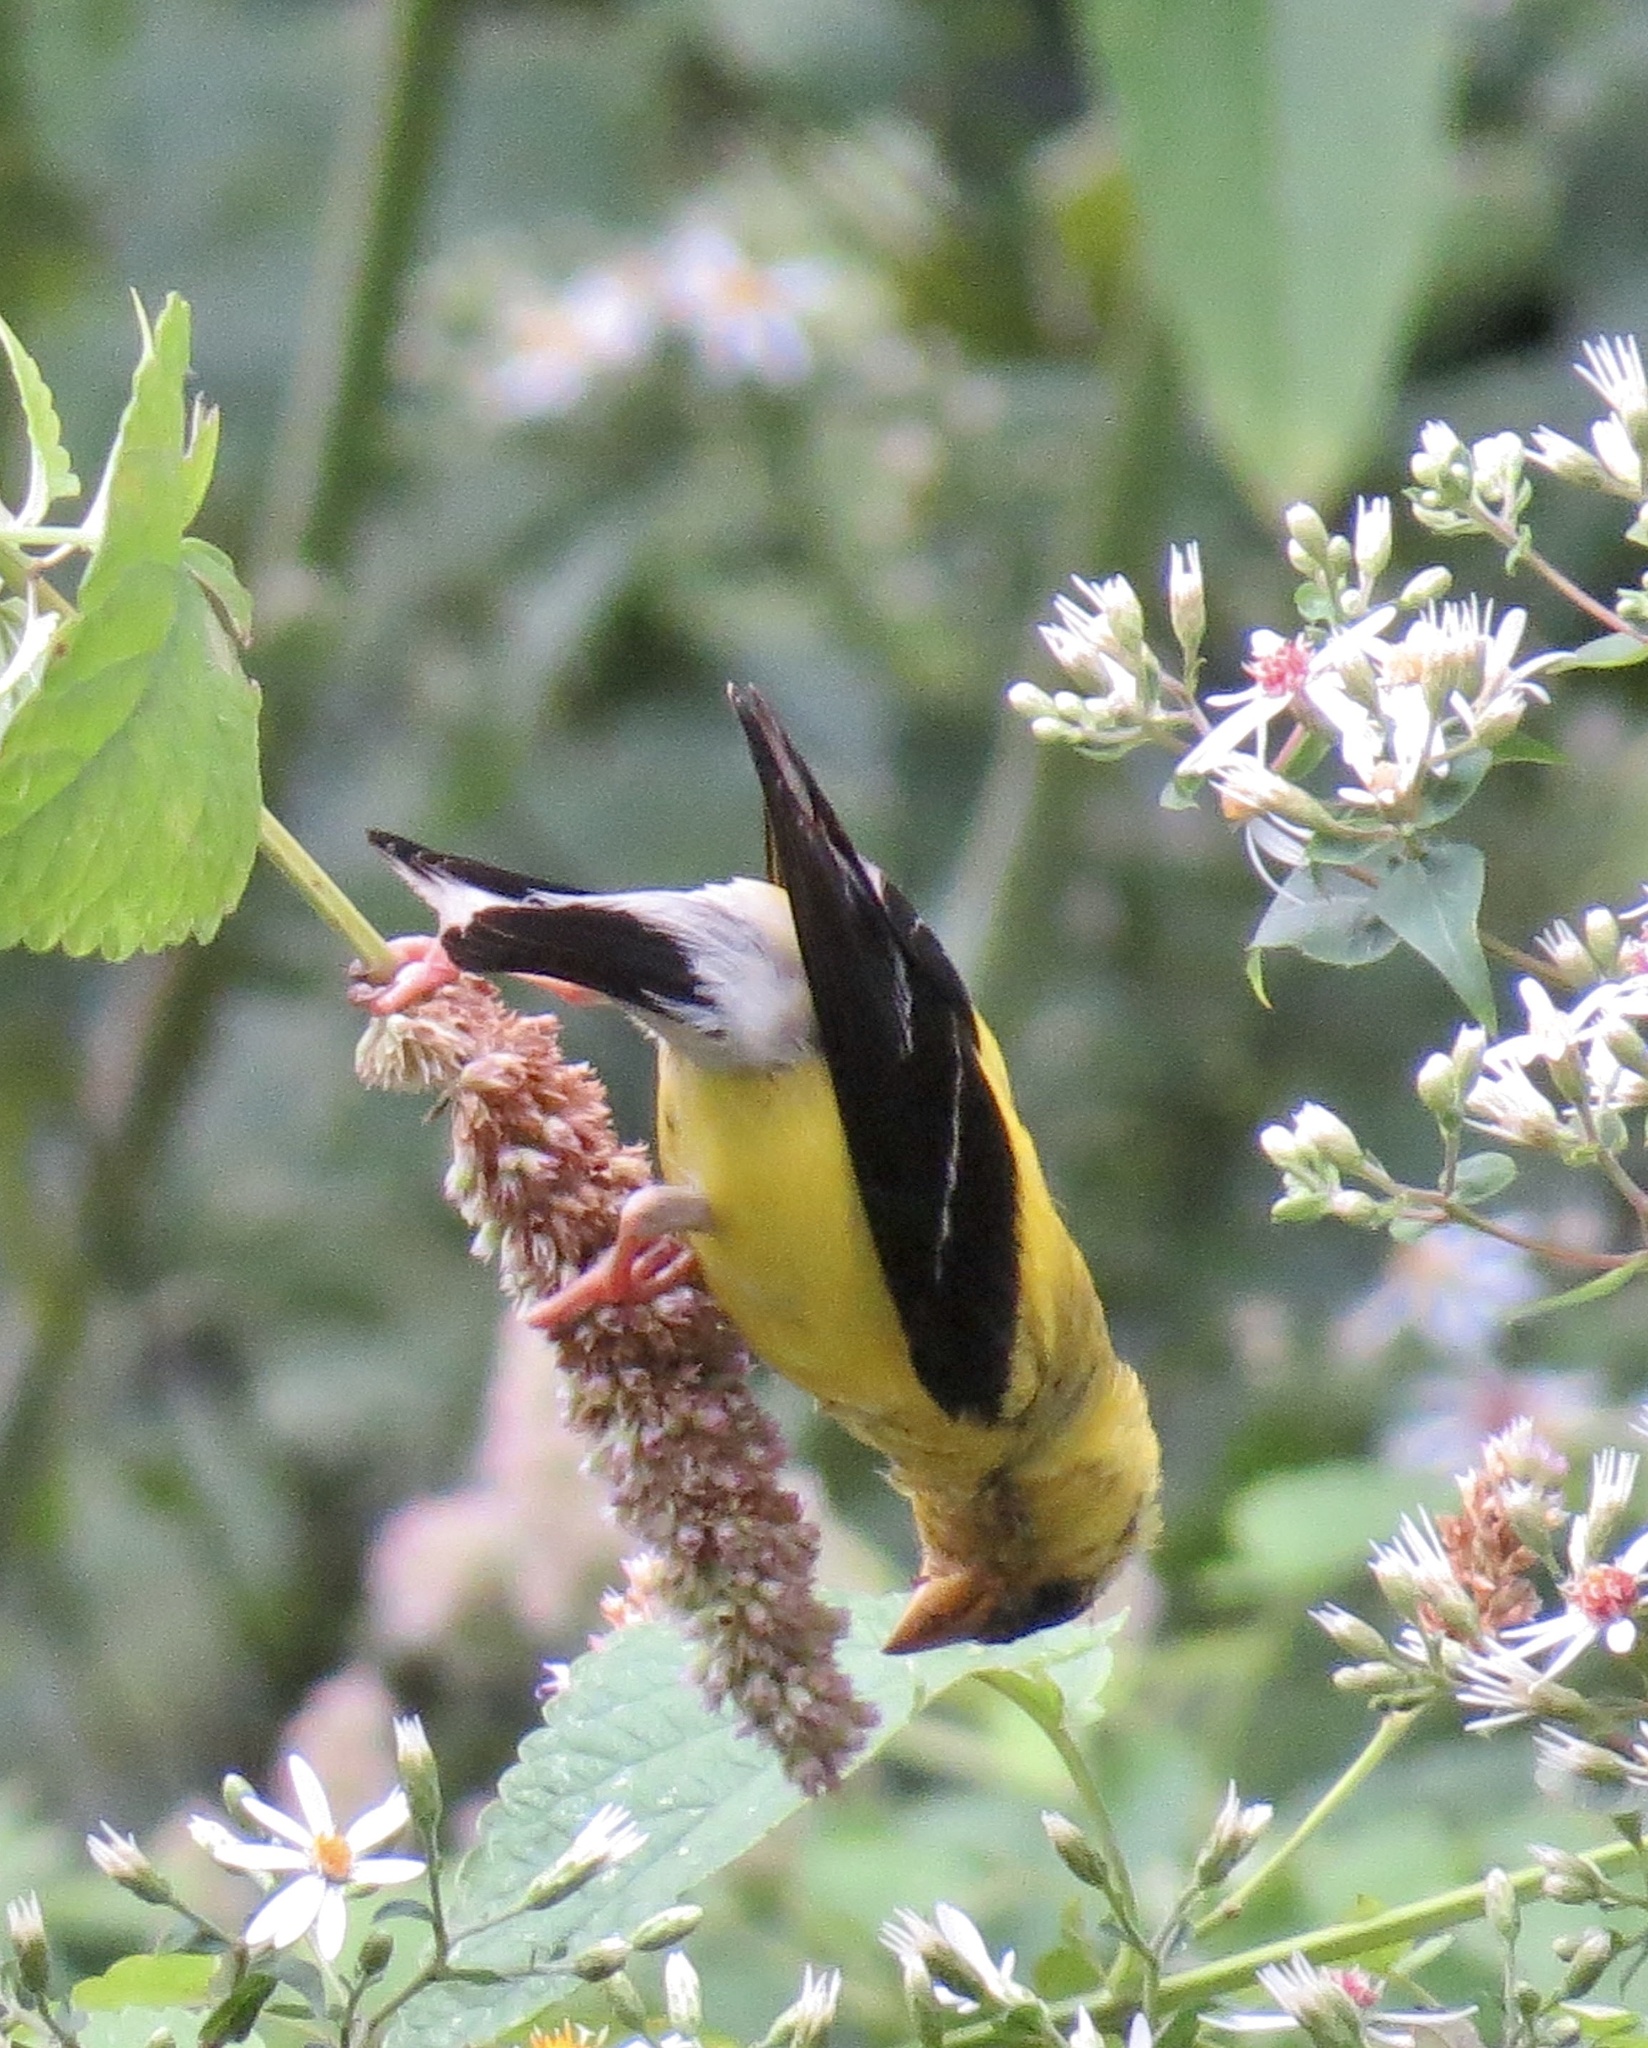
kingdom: Animalia
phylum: Chordata
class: Aves
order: Passeriformes
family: Fringillidae
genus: Spinus
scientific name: Spinus tristis
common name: American goldfinch
